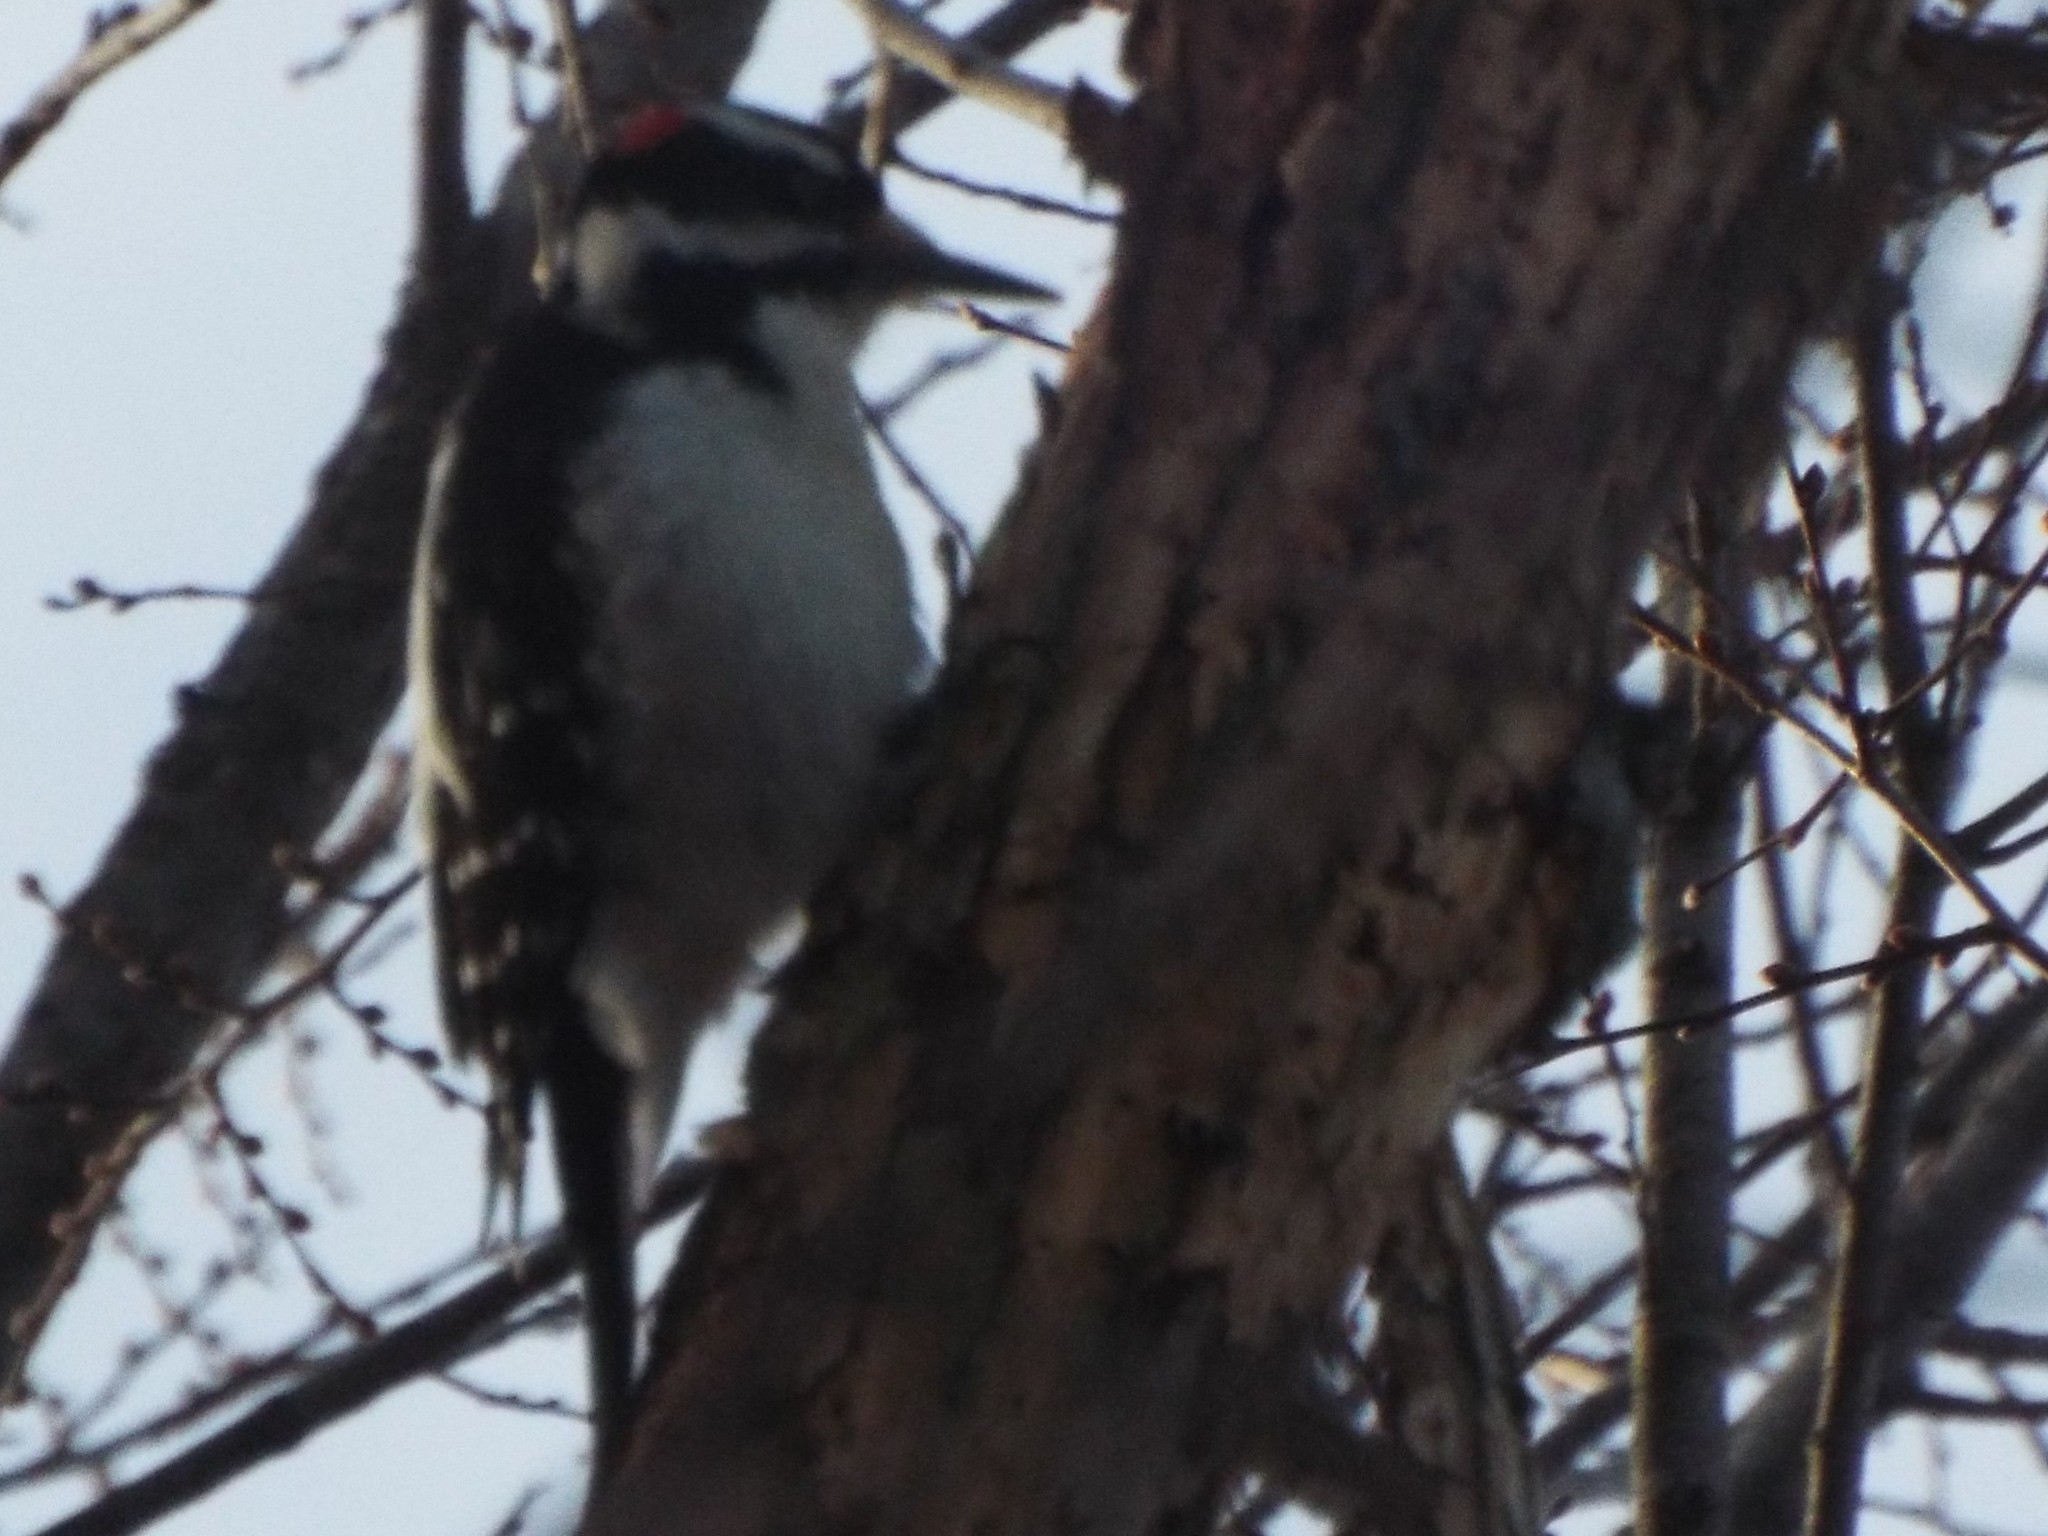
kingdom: Animalia
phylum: Chordata
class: Aves
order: Piciformes
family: Picidae
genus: Leuconotopicus
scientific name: Leuconotopicus villosus
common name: Hairy woodpecker
